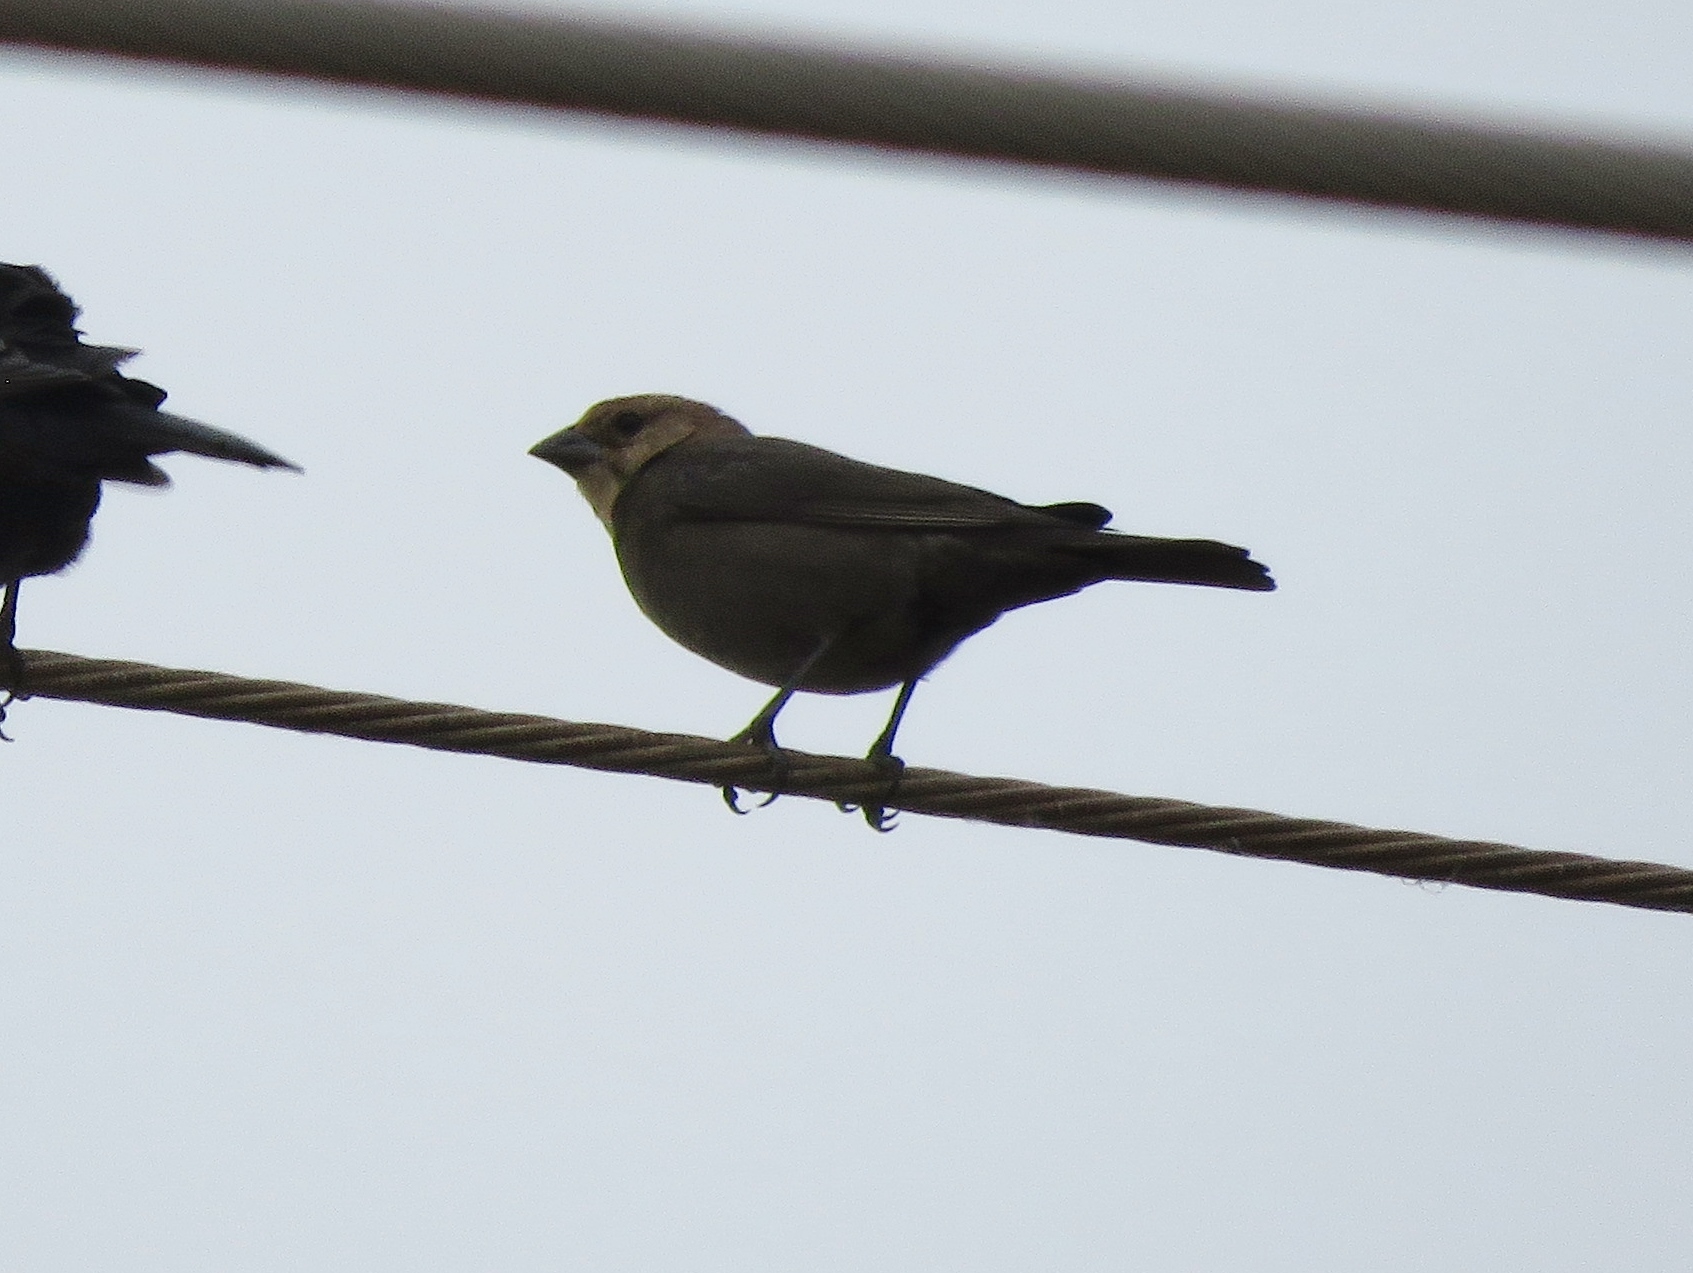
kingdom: Animalia
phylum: Chordata
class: Aves
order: Passeriformes
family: Icteridae
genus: Molothrus
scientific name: Molothrus ater
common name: Brown-headed cowbird
